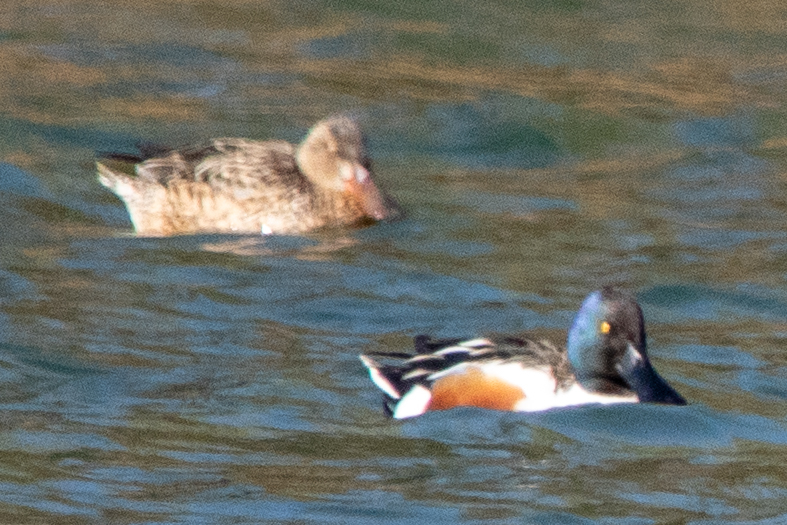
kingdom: Animalia
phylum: Chordata
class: Aves
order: Anseriformes
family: Anatidae
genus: Spatula
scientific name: Spatula clypeata
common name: Northern shoveler
